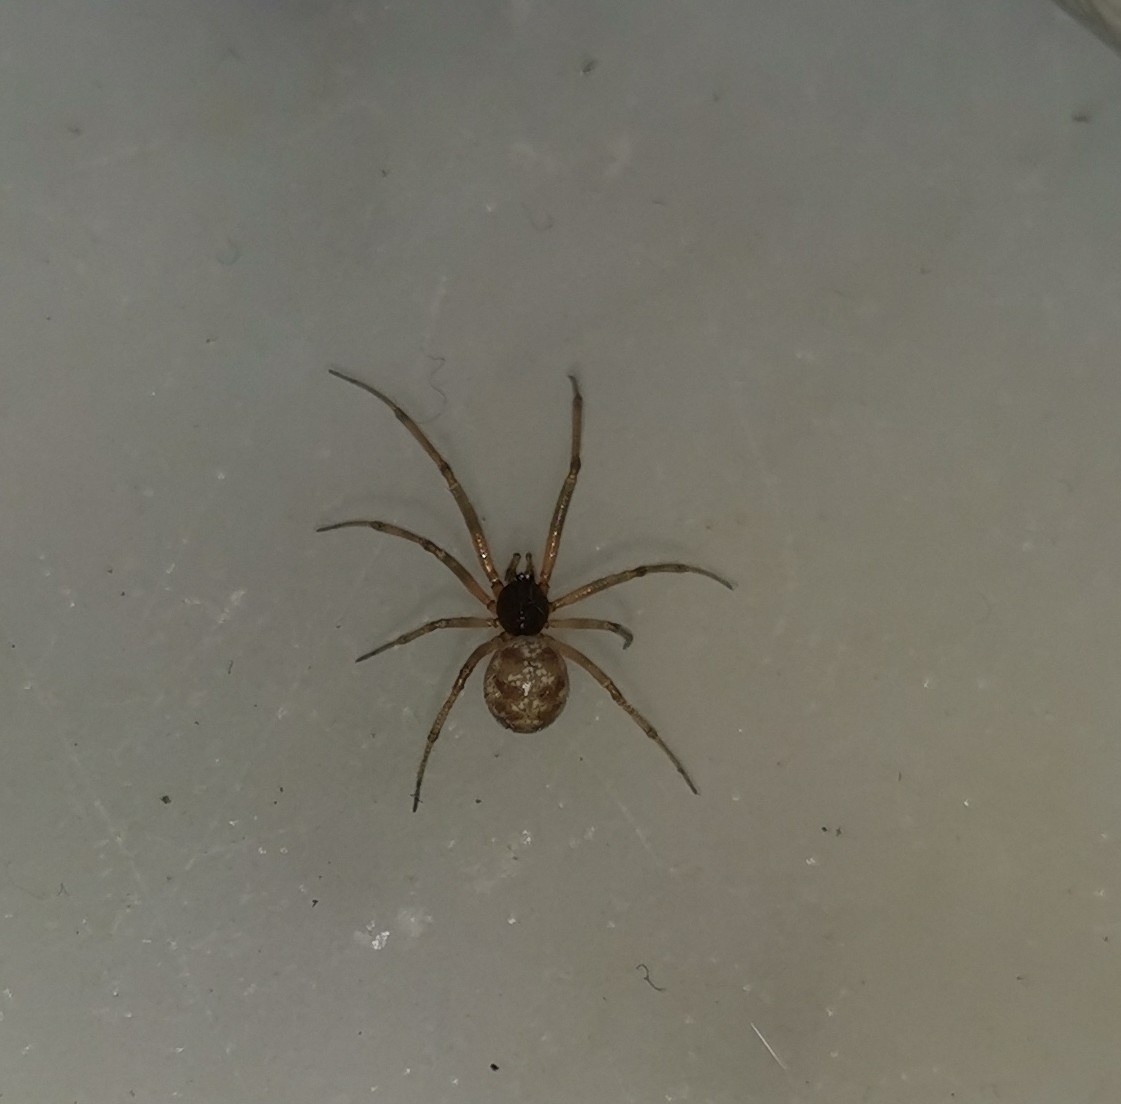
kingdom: Animalia
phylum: Arthropoda
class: Arachnida
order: Araneae
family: Theridiidae
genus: Steatoda
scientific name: Steatoda triangulosa
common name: Triangulate bud spider
